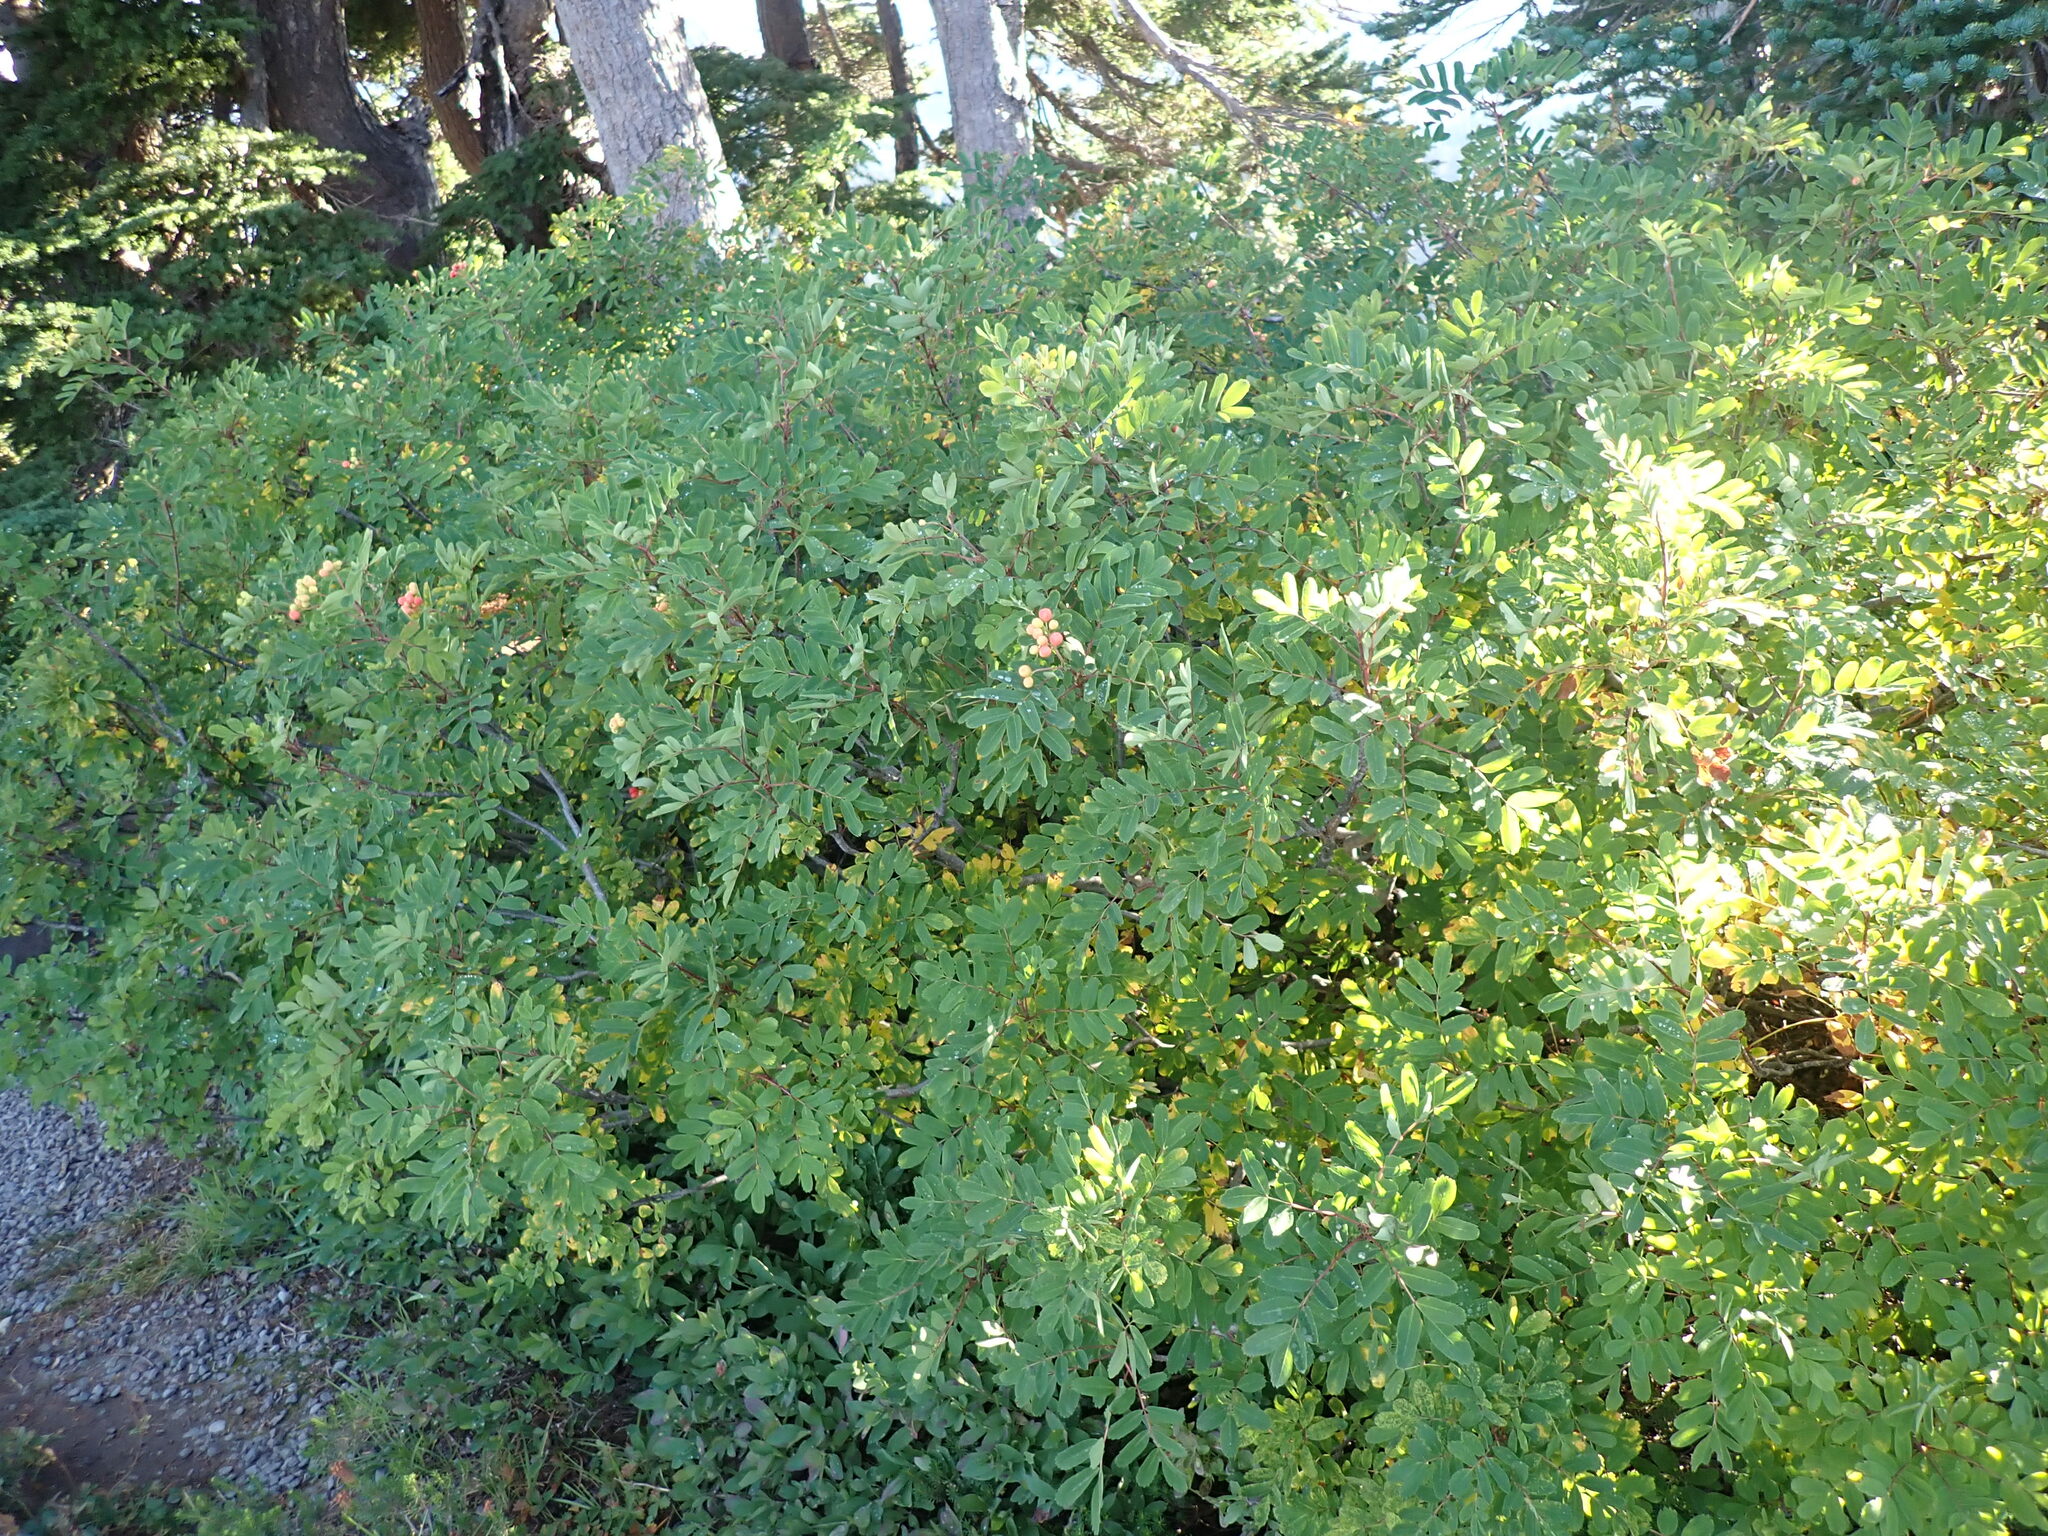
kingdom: Plantae
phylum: Tracheophyta
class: Magnoliopsida
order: Rosales
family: Rosaceae
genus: Sorbus
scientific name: Sorbus sitchensis
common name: Sitka mountain-ash
